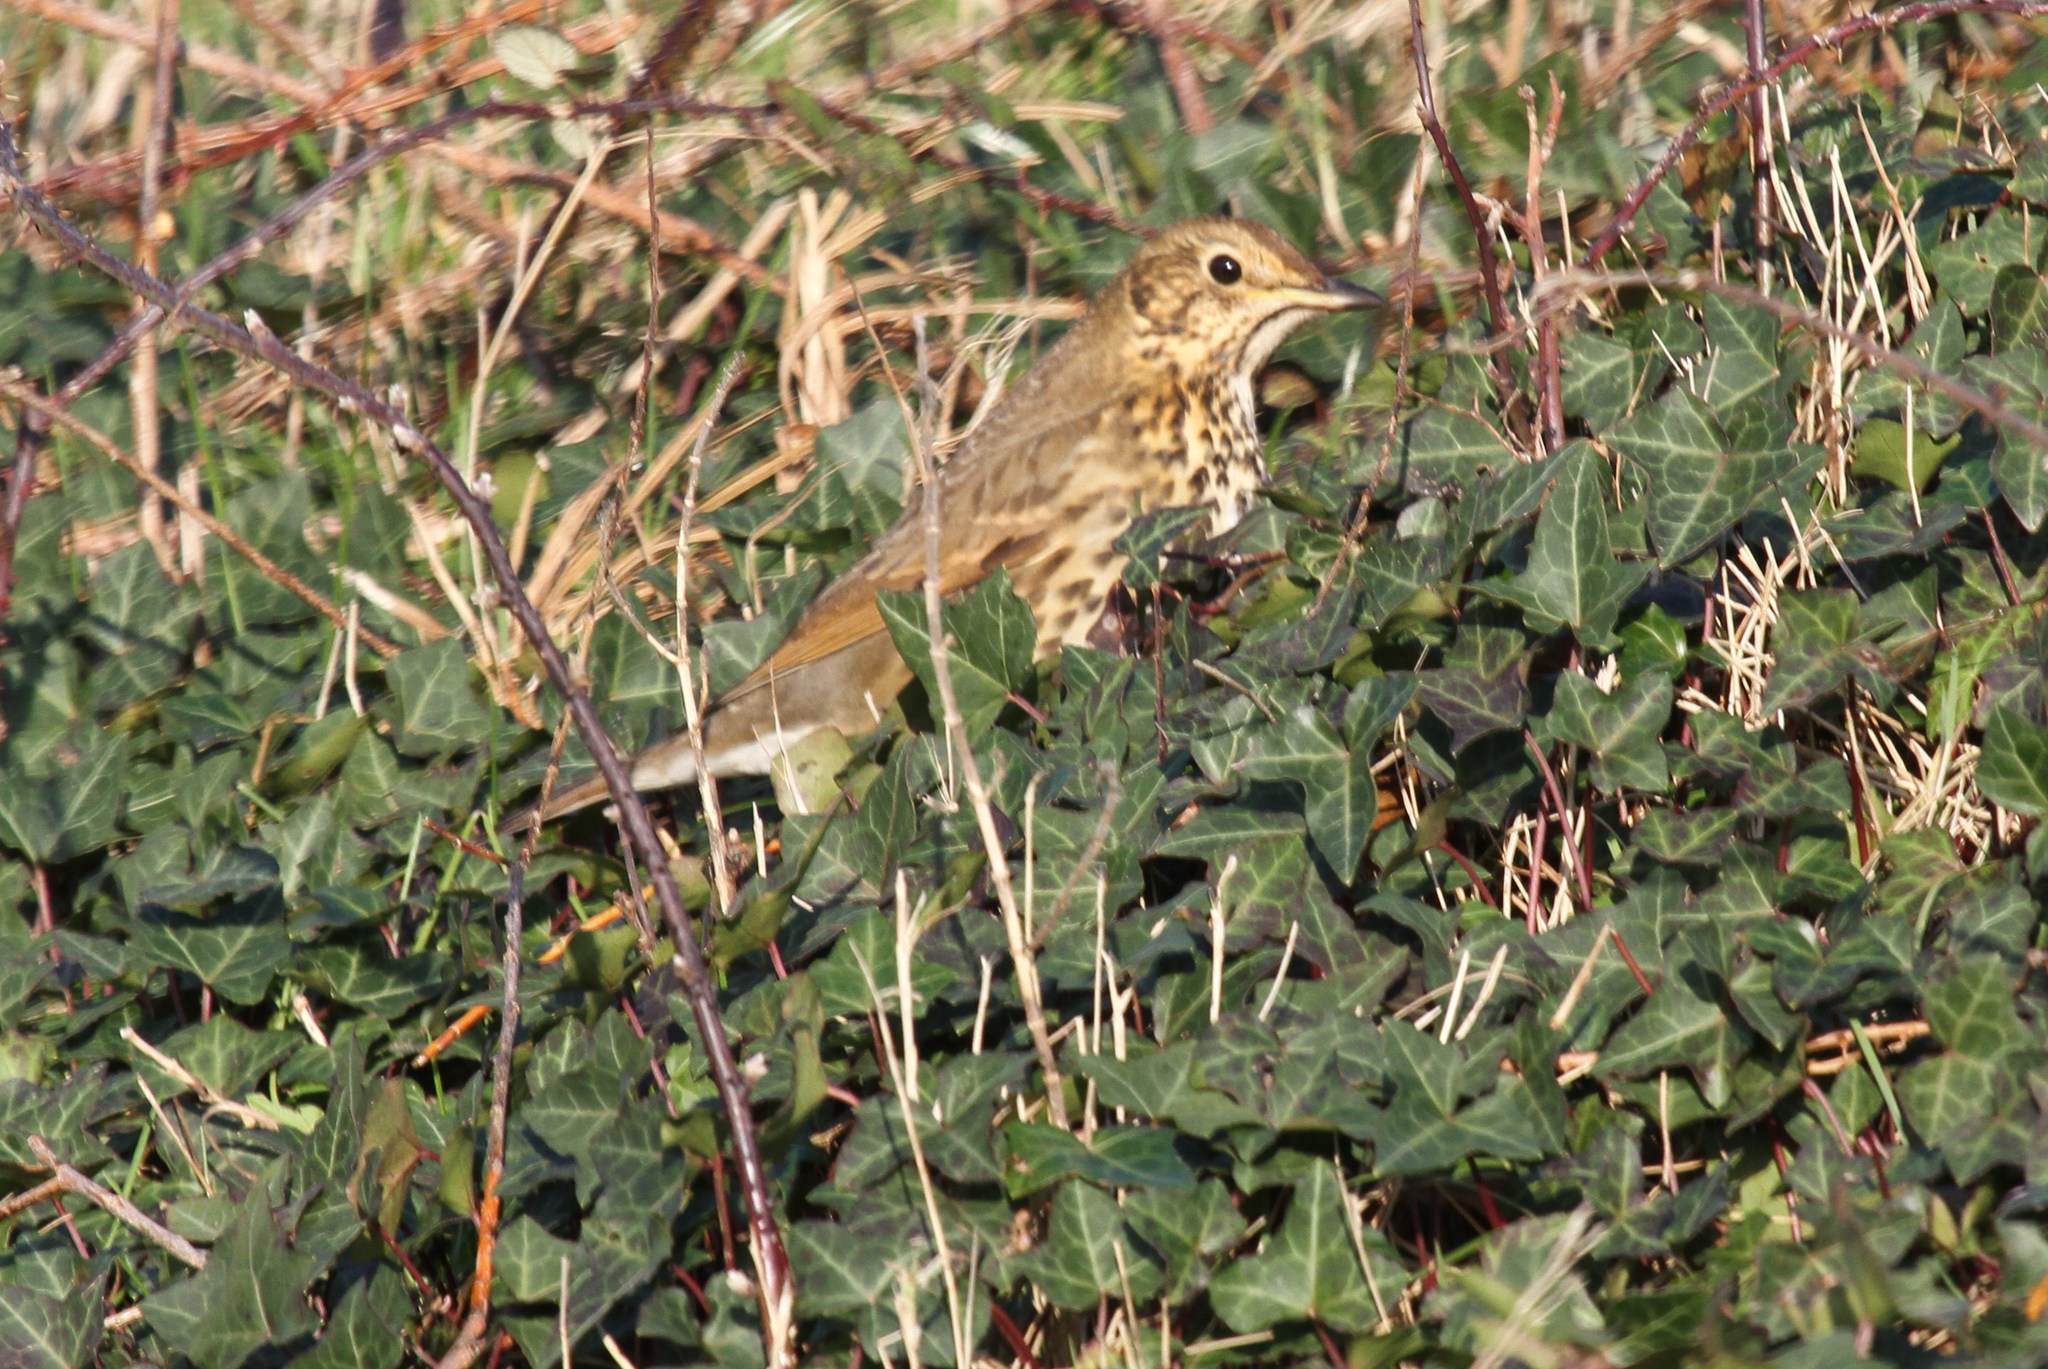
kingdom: Animalia
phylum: Chordata
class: Aves
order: Passeriformes
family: Turdidae
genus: Turdus
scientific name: Turdus philomelos
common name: Song thrush
